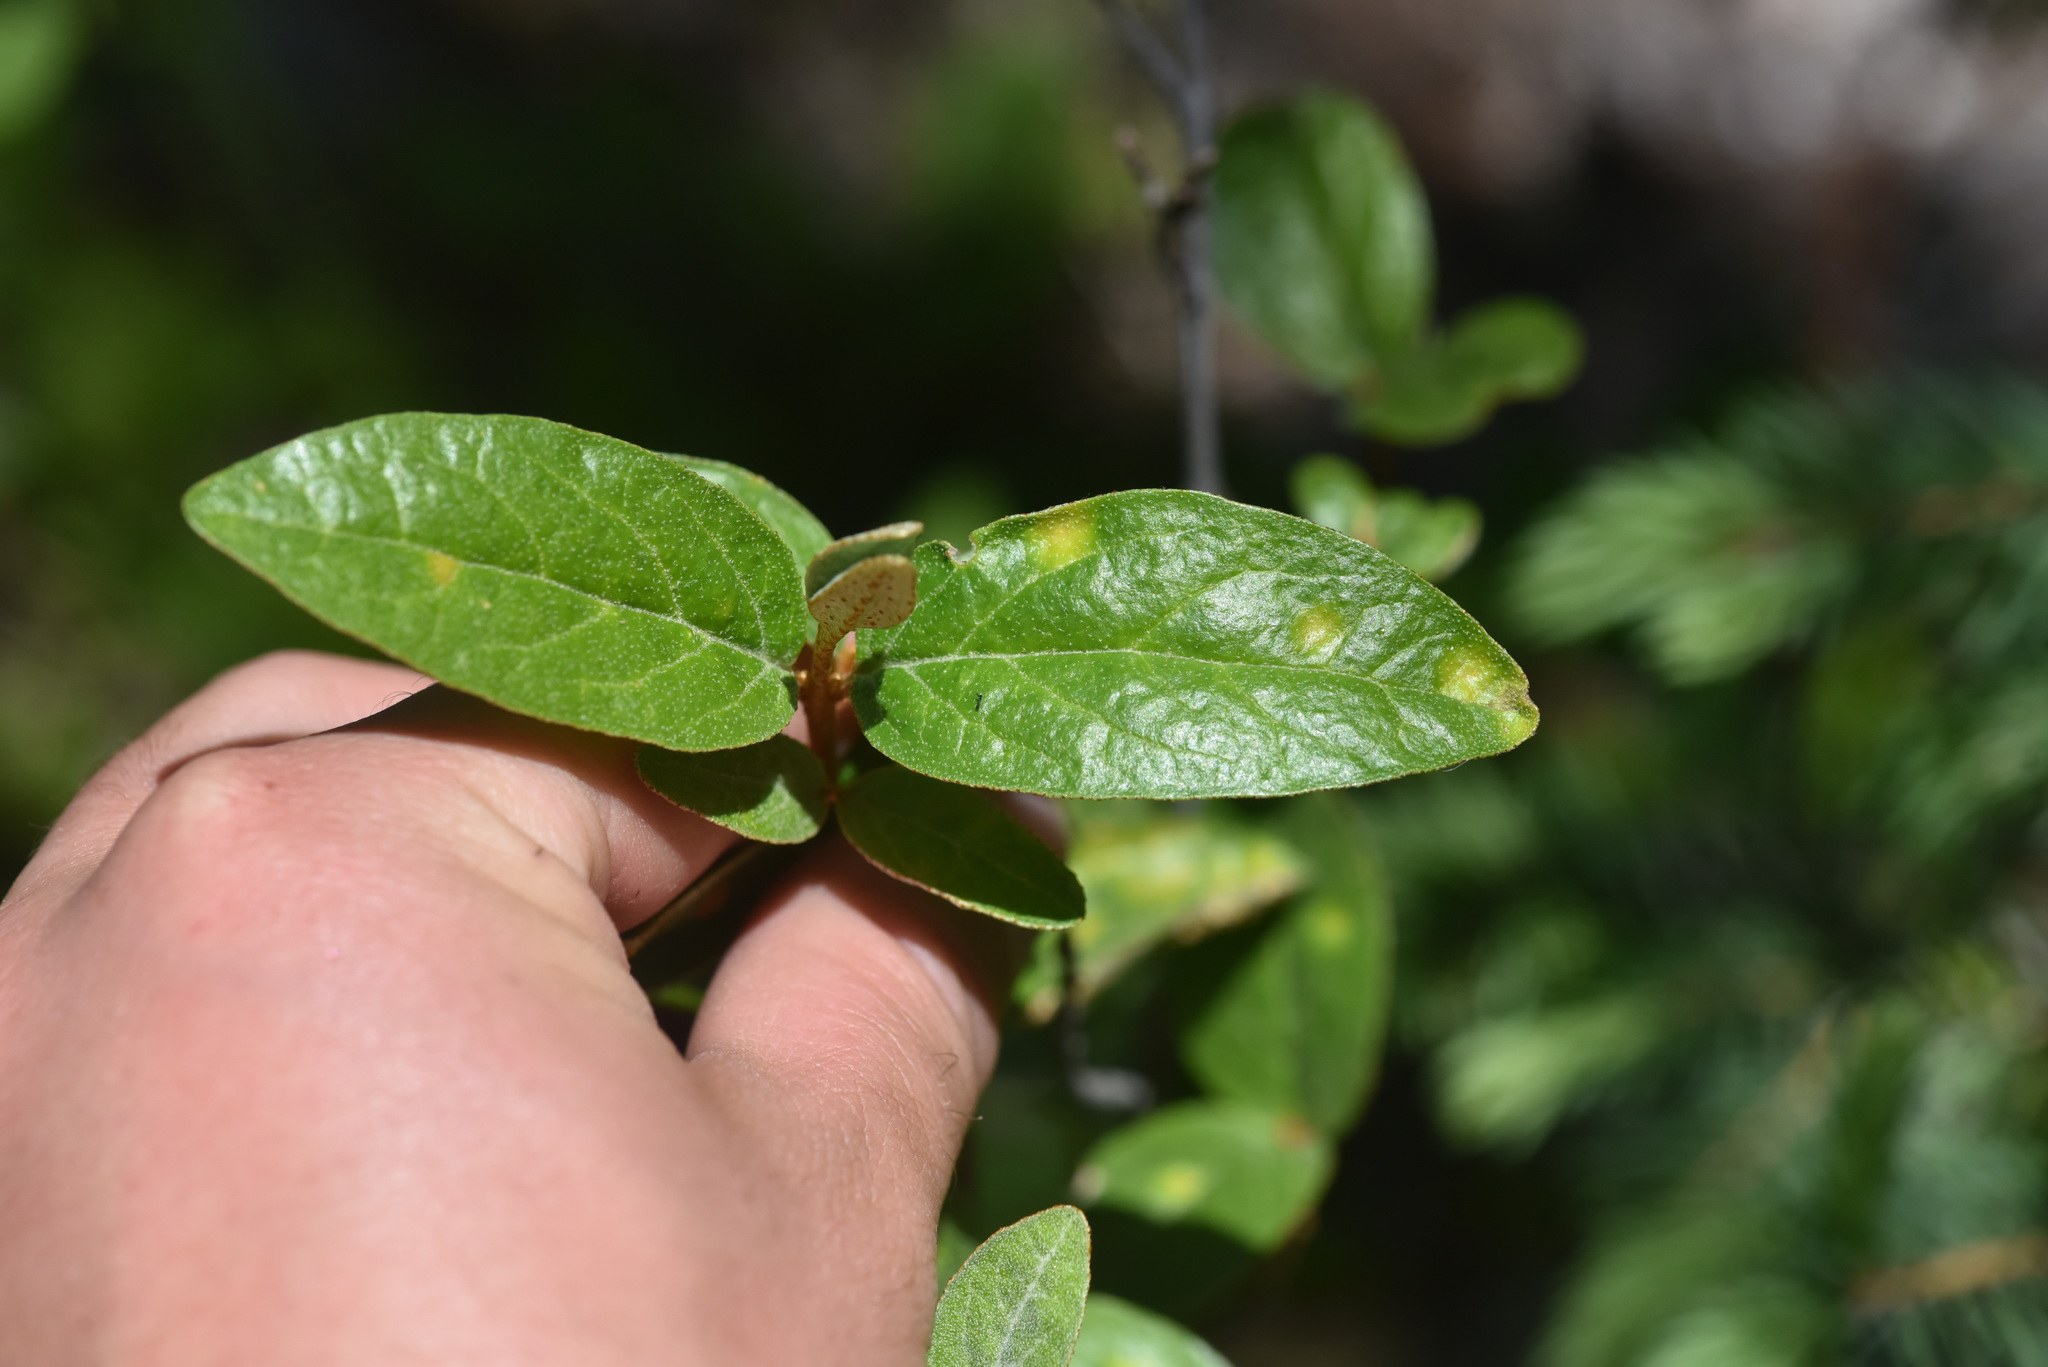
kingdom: Plantae
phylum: Tracheophyta
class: Magnoliopsida
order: Rosales
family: Elaeagnaceae
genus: Shepherdia
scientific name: Shepherdia canadensis
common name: Soapberry
